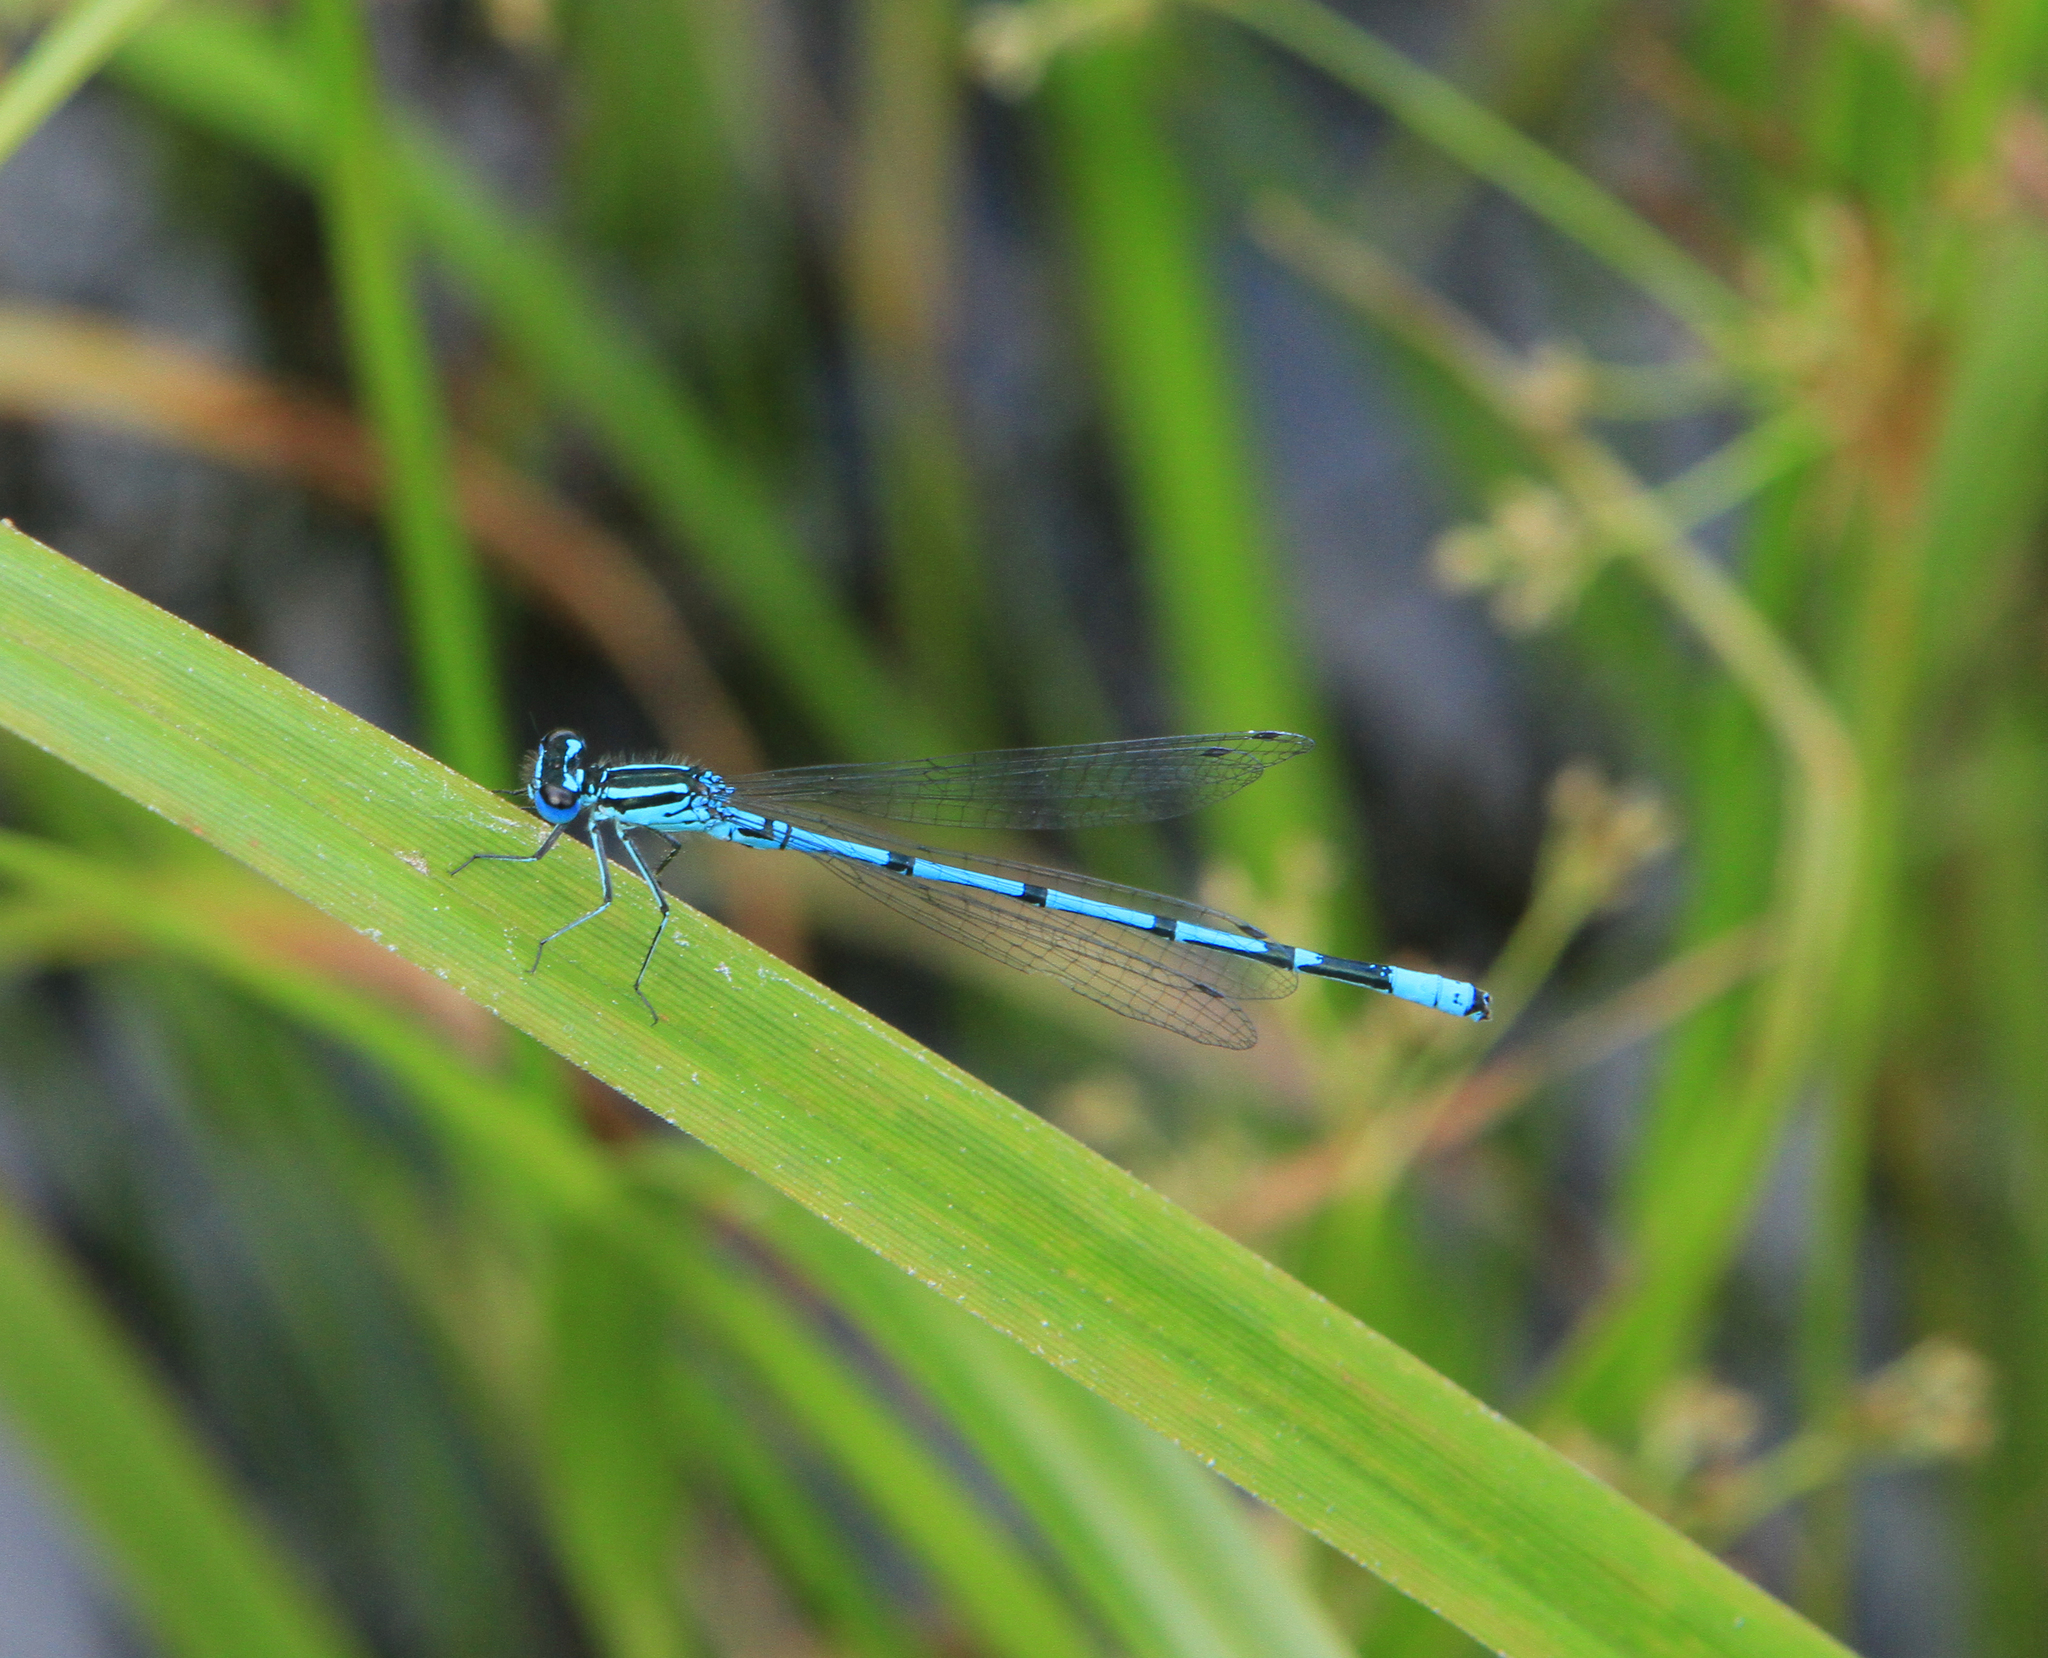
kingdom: Animalia
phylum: Arthropoda
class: Insecta
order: Odonata
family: Coenagrionidae
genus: Coenagrion
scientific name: Coenagrion puella
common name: Azure damselfly
